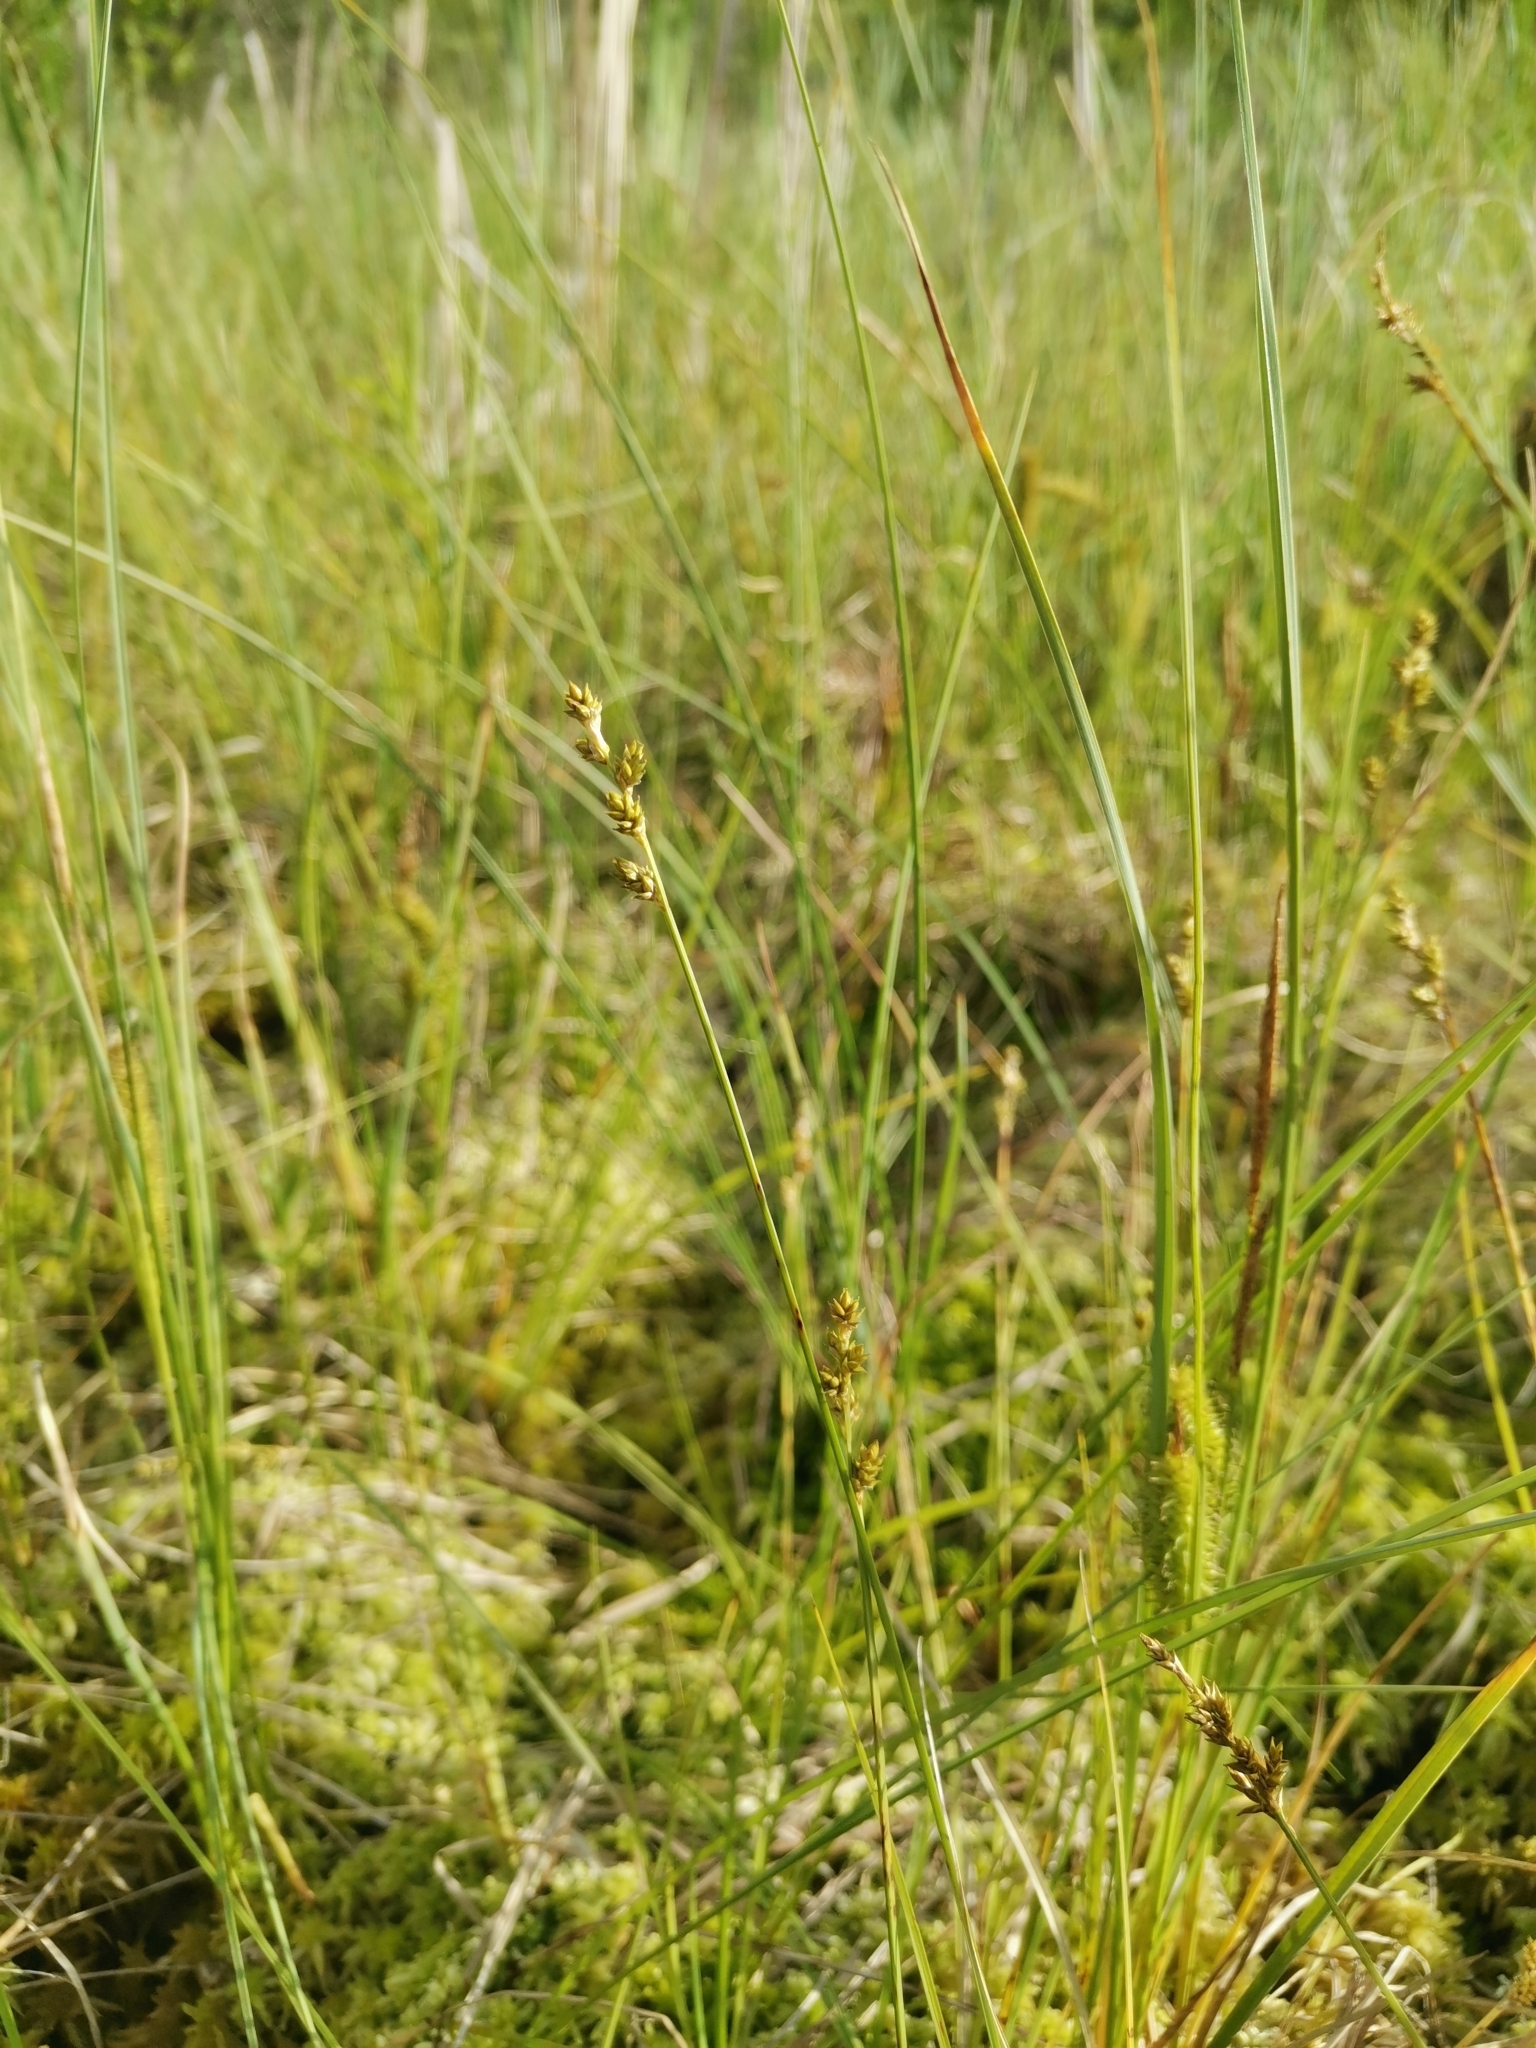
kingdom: Plantae
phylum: Tracheophyta
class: Liliopsida
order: Poales
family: Cyperaceae
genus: Carex
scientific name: Carex canescens
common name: White sedge
